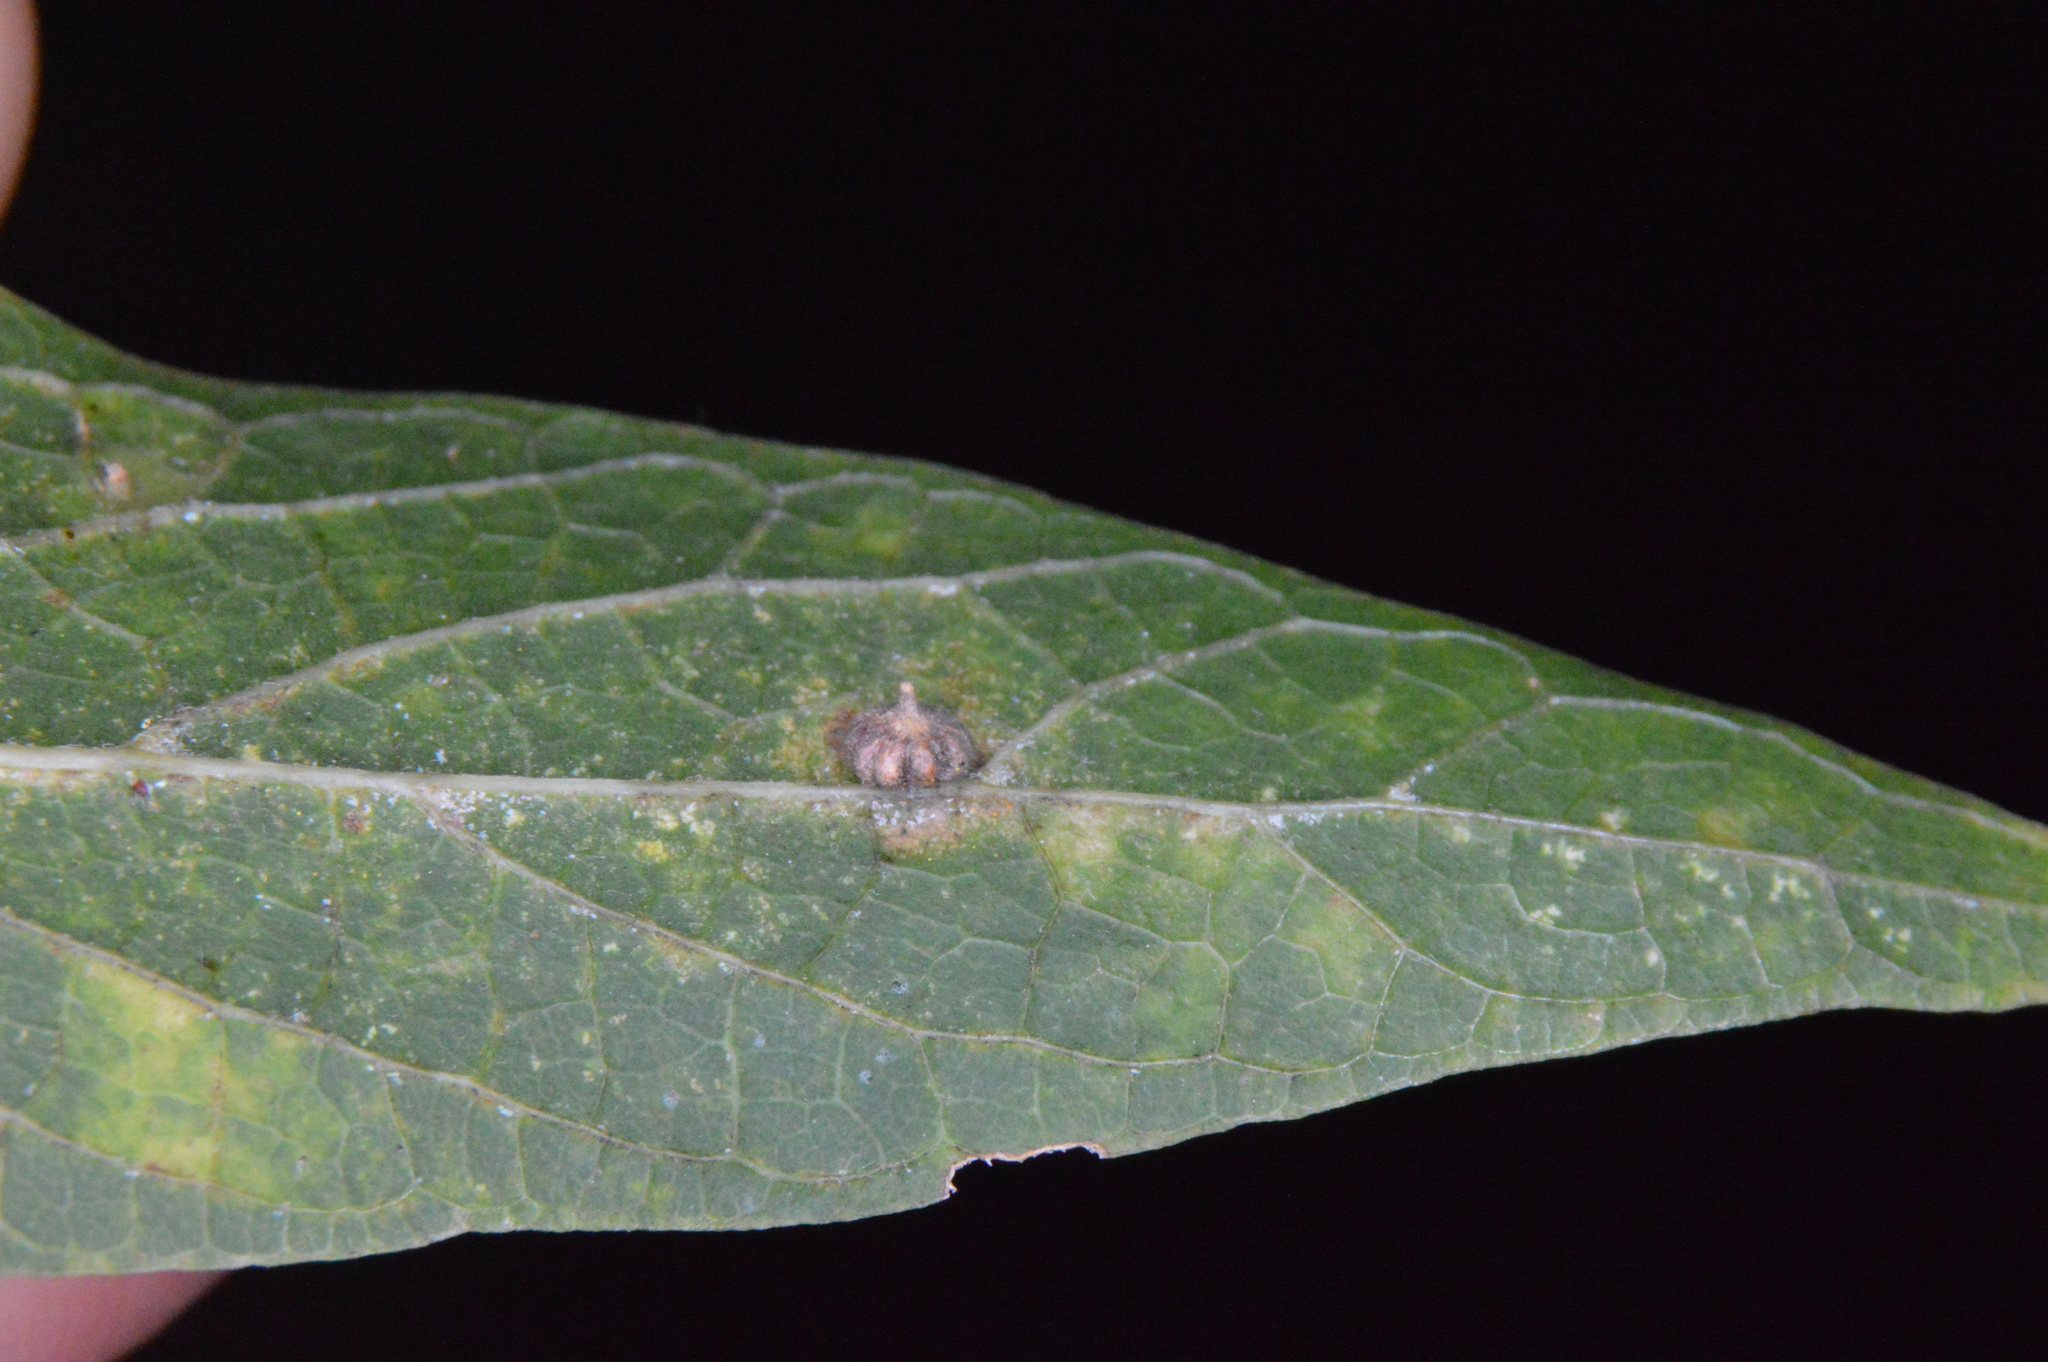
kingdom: Animalia
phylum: Arthropoda
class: Insecta
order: Diptera
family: Cecidomyiidae
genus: Celticecis
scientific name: Celticecis capsularis
